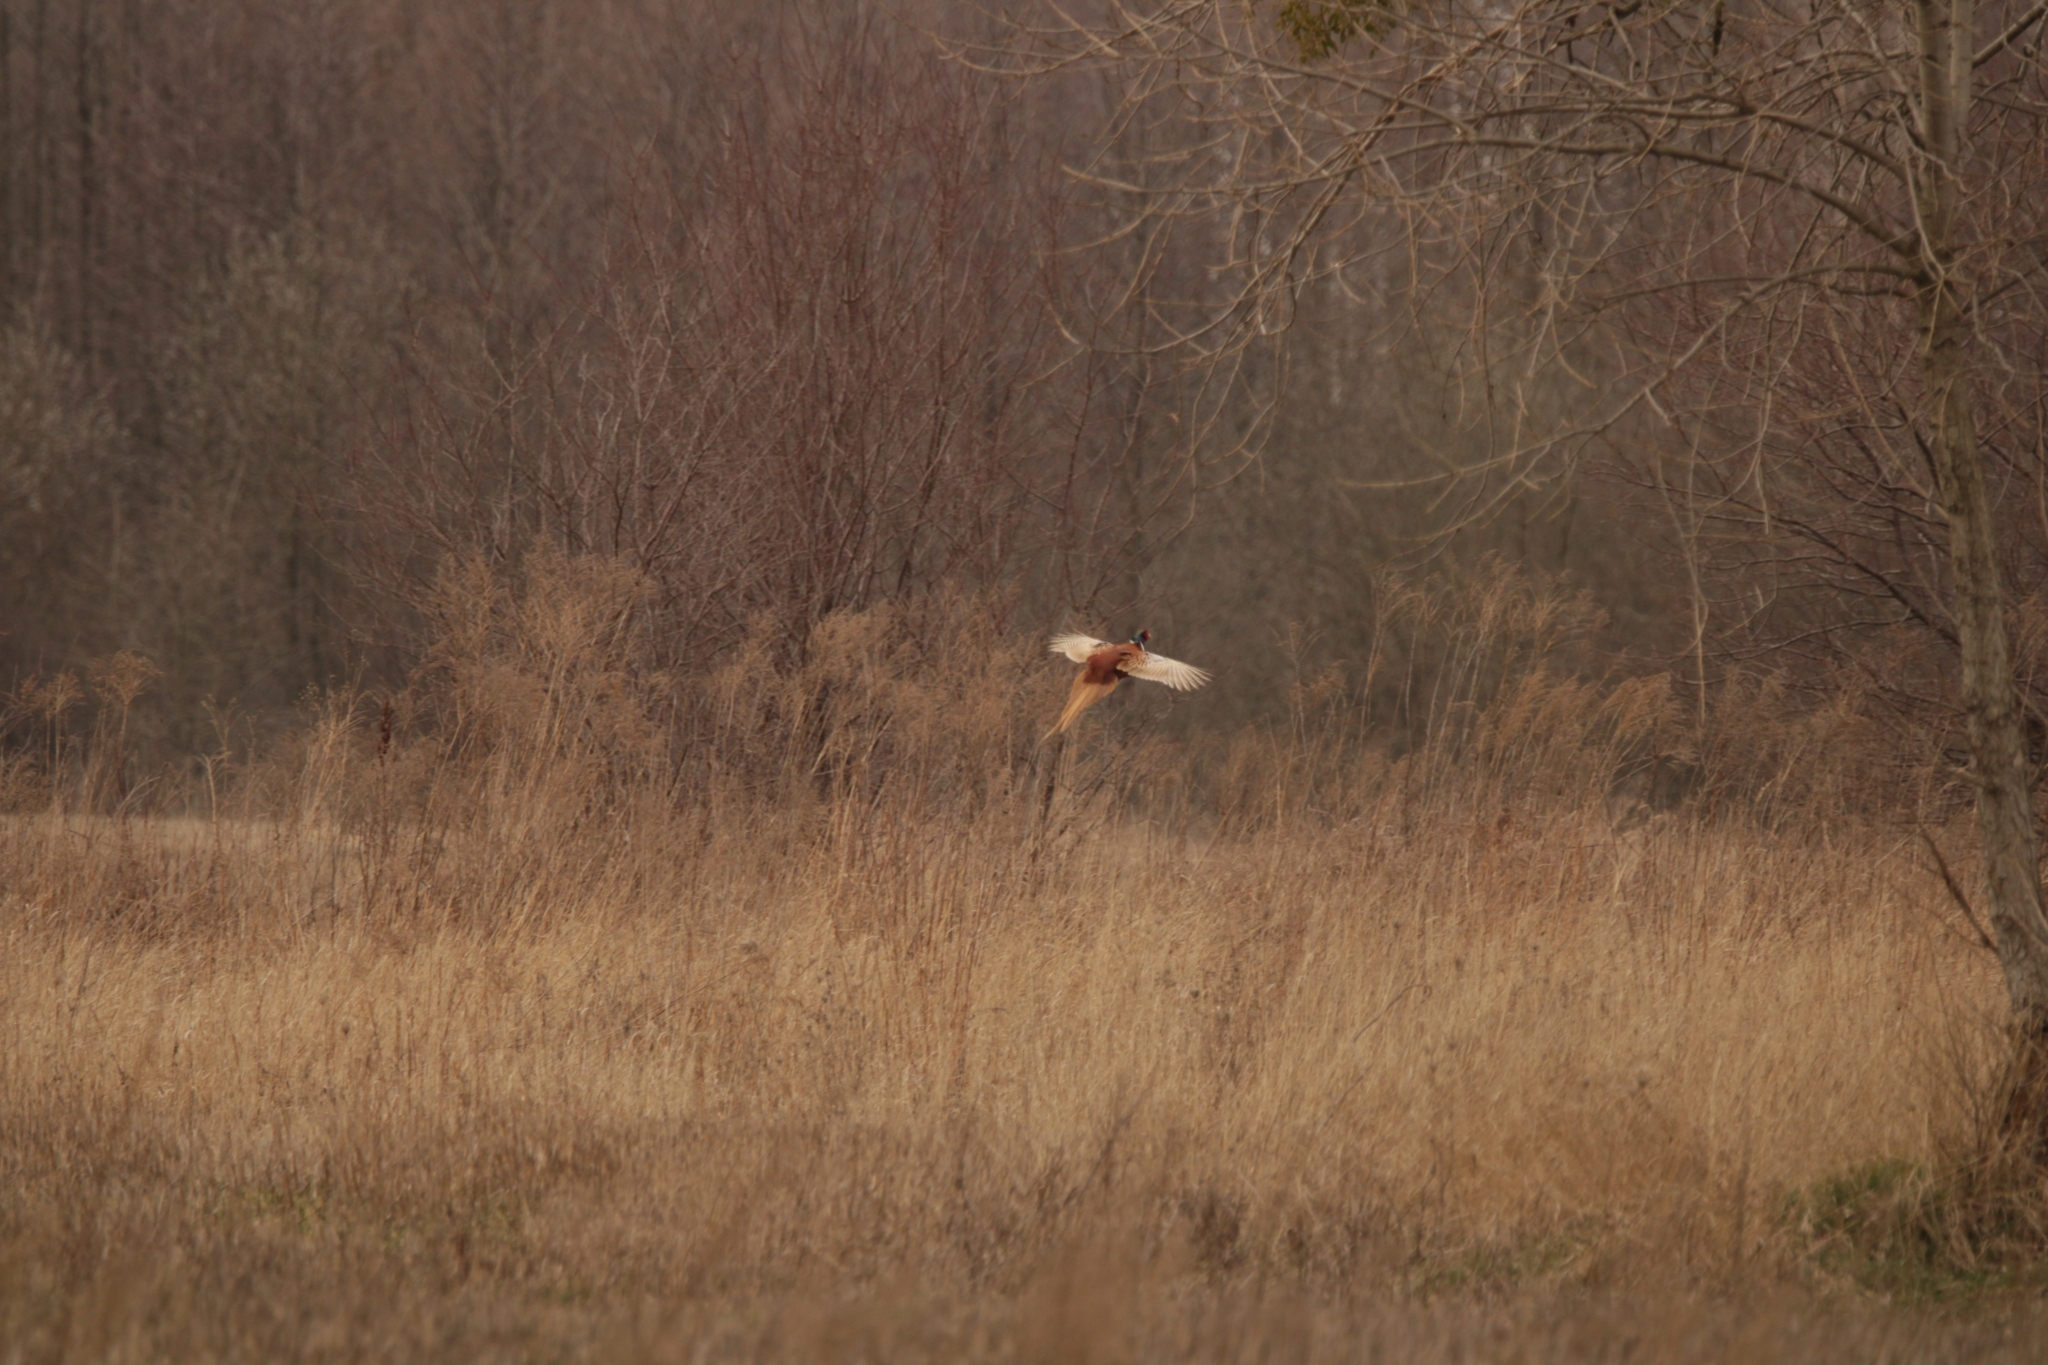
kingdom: Animalia
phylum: Chordata
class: Aves
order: Galliformes
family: Phasianidae
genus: Phasianus
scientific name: Phasianus colchicus
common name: Common pheasant
